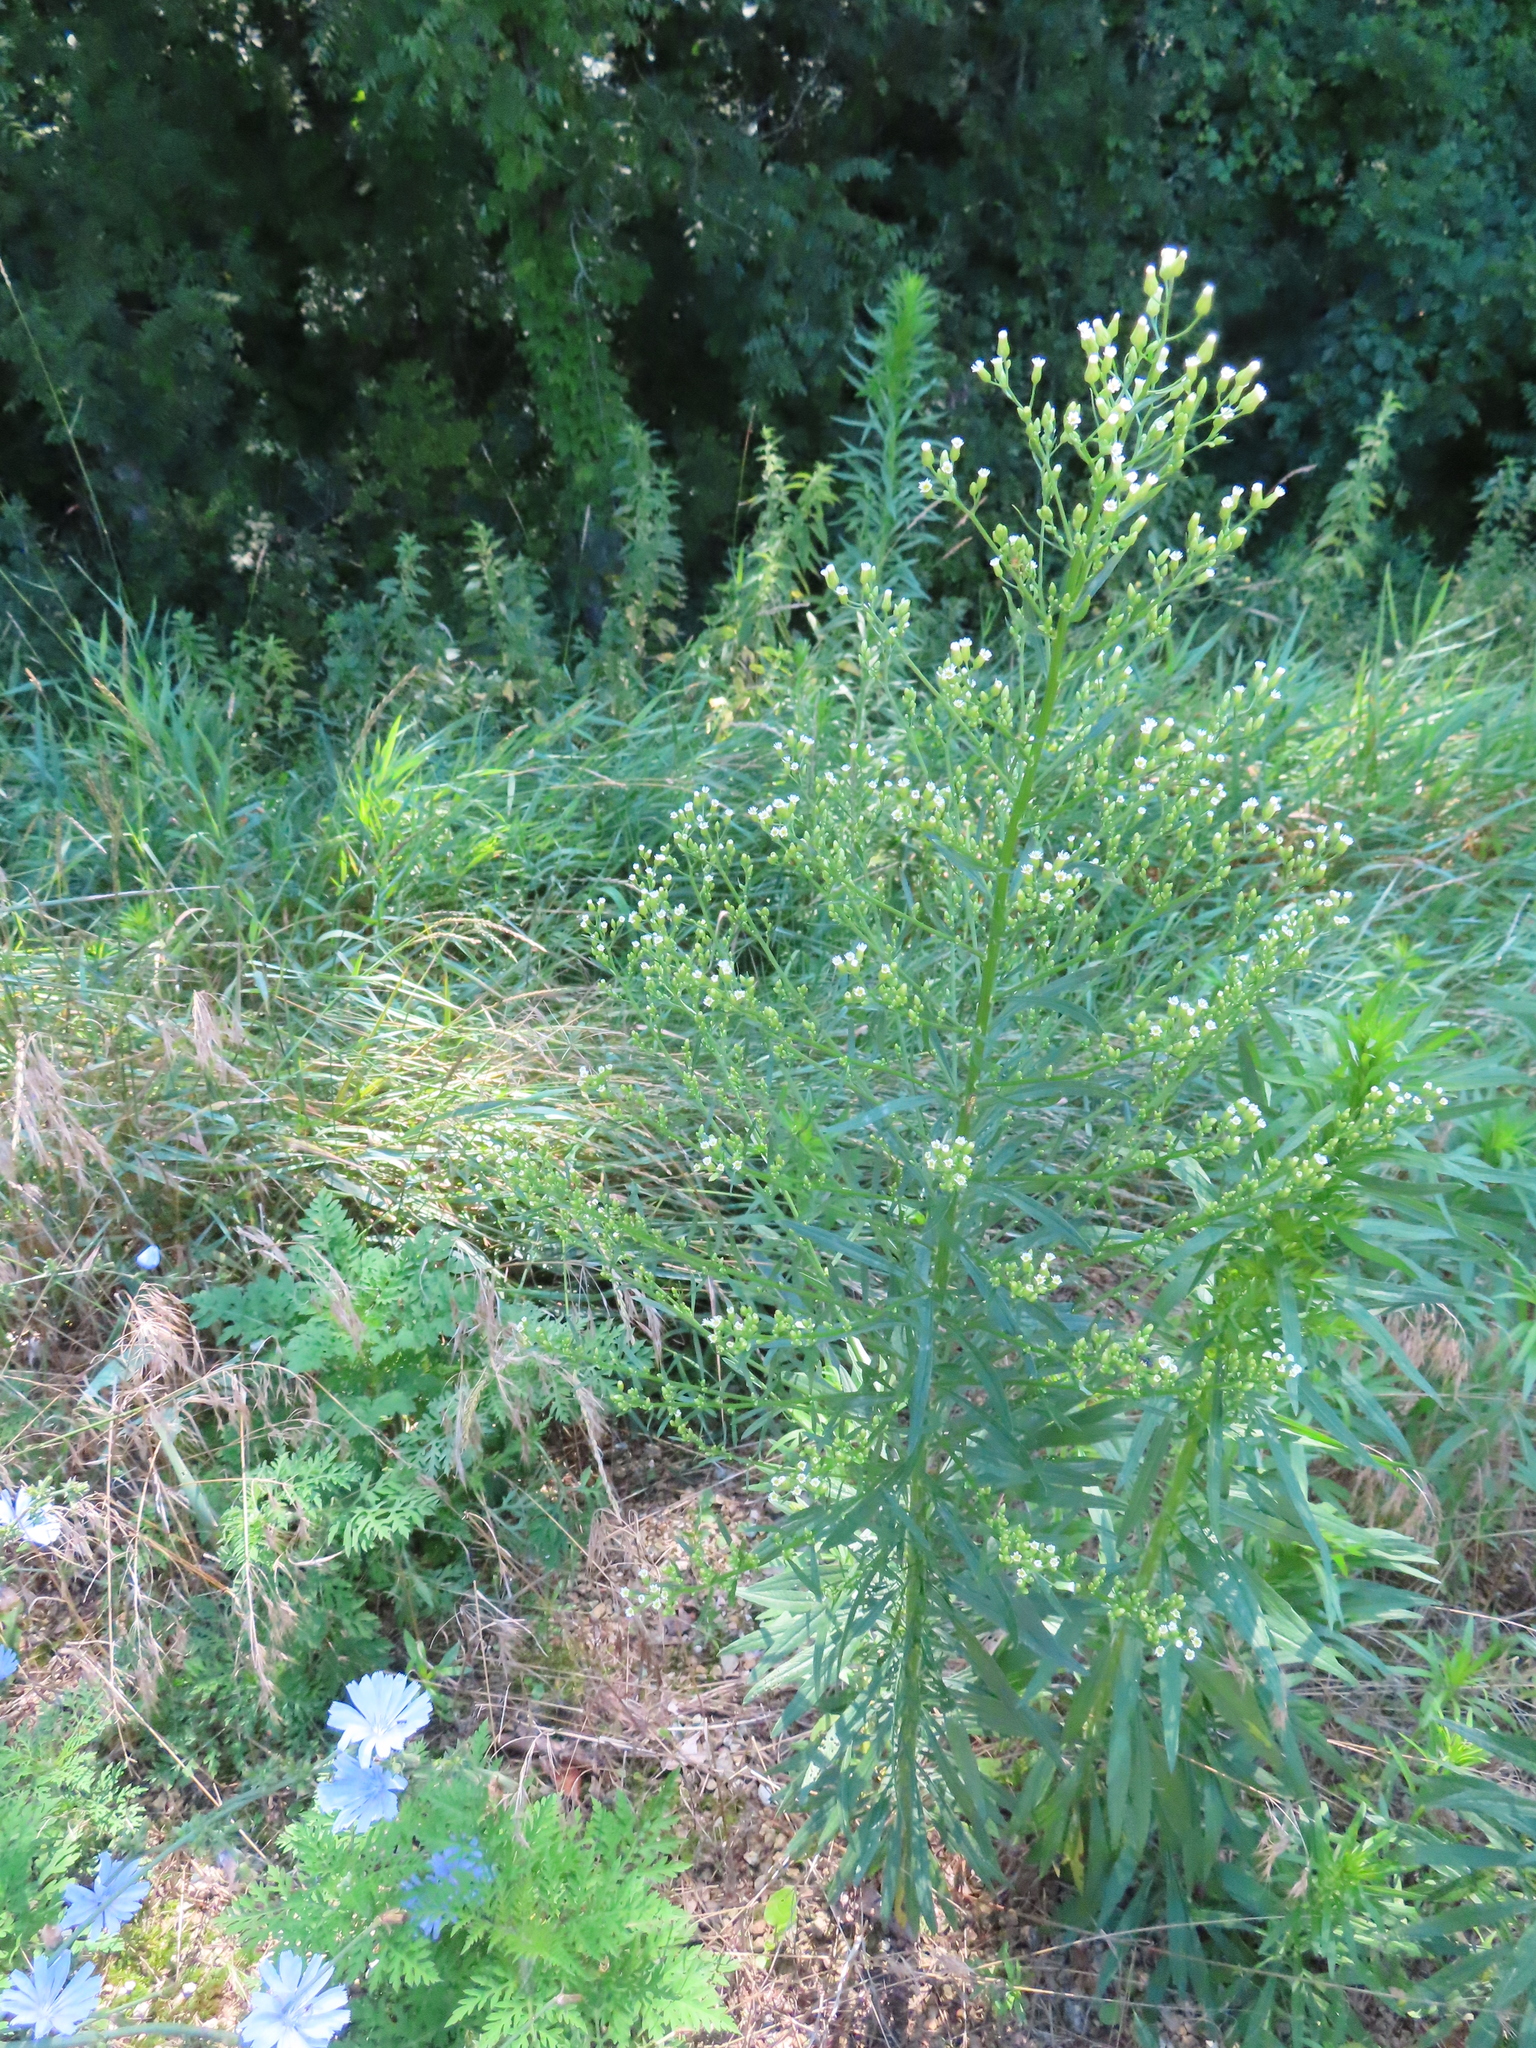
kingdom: Plantae
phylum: Tracheophyta
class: Magnoliopsida
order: Asterales
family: Asteraceae
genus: Erigeron
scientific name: Erigeron canadensis
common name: Canadian fleabane
